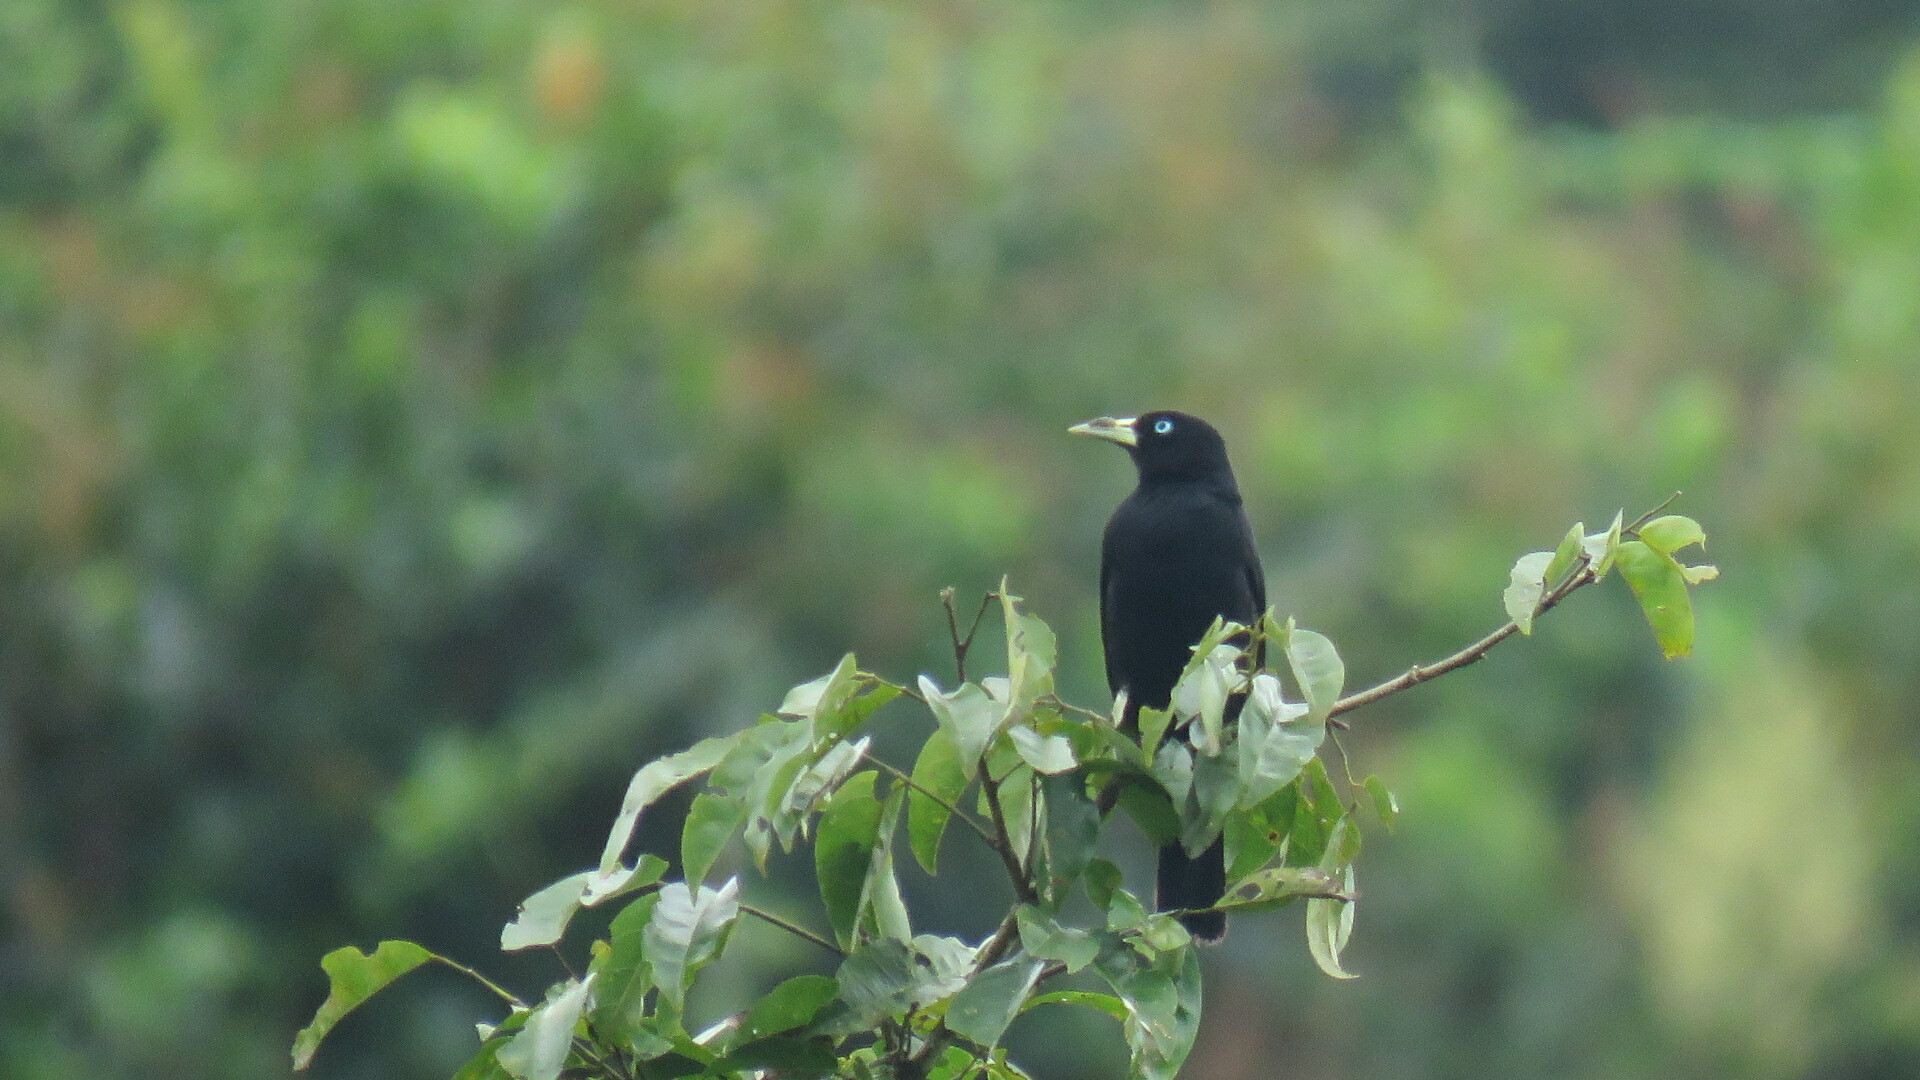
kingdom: Animalia
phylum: Chordata
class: Aves
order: Passeriformes
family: Icteridae
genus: Cacicus
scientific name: Cacicus uropygialis
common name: Scarlet-rumped cacique
